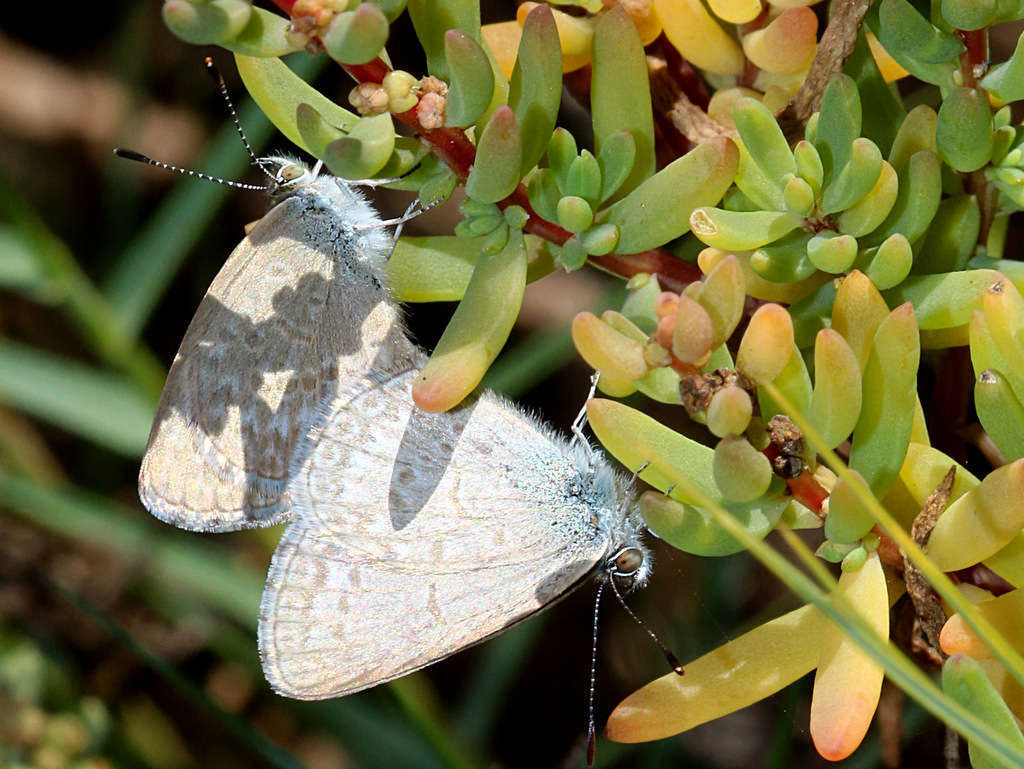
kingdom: Animalia
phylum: Arthropoda
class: Insecta
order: Lepidoptera
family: Lycaenidae
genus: Zizina
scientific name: Zizina labradus
